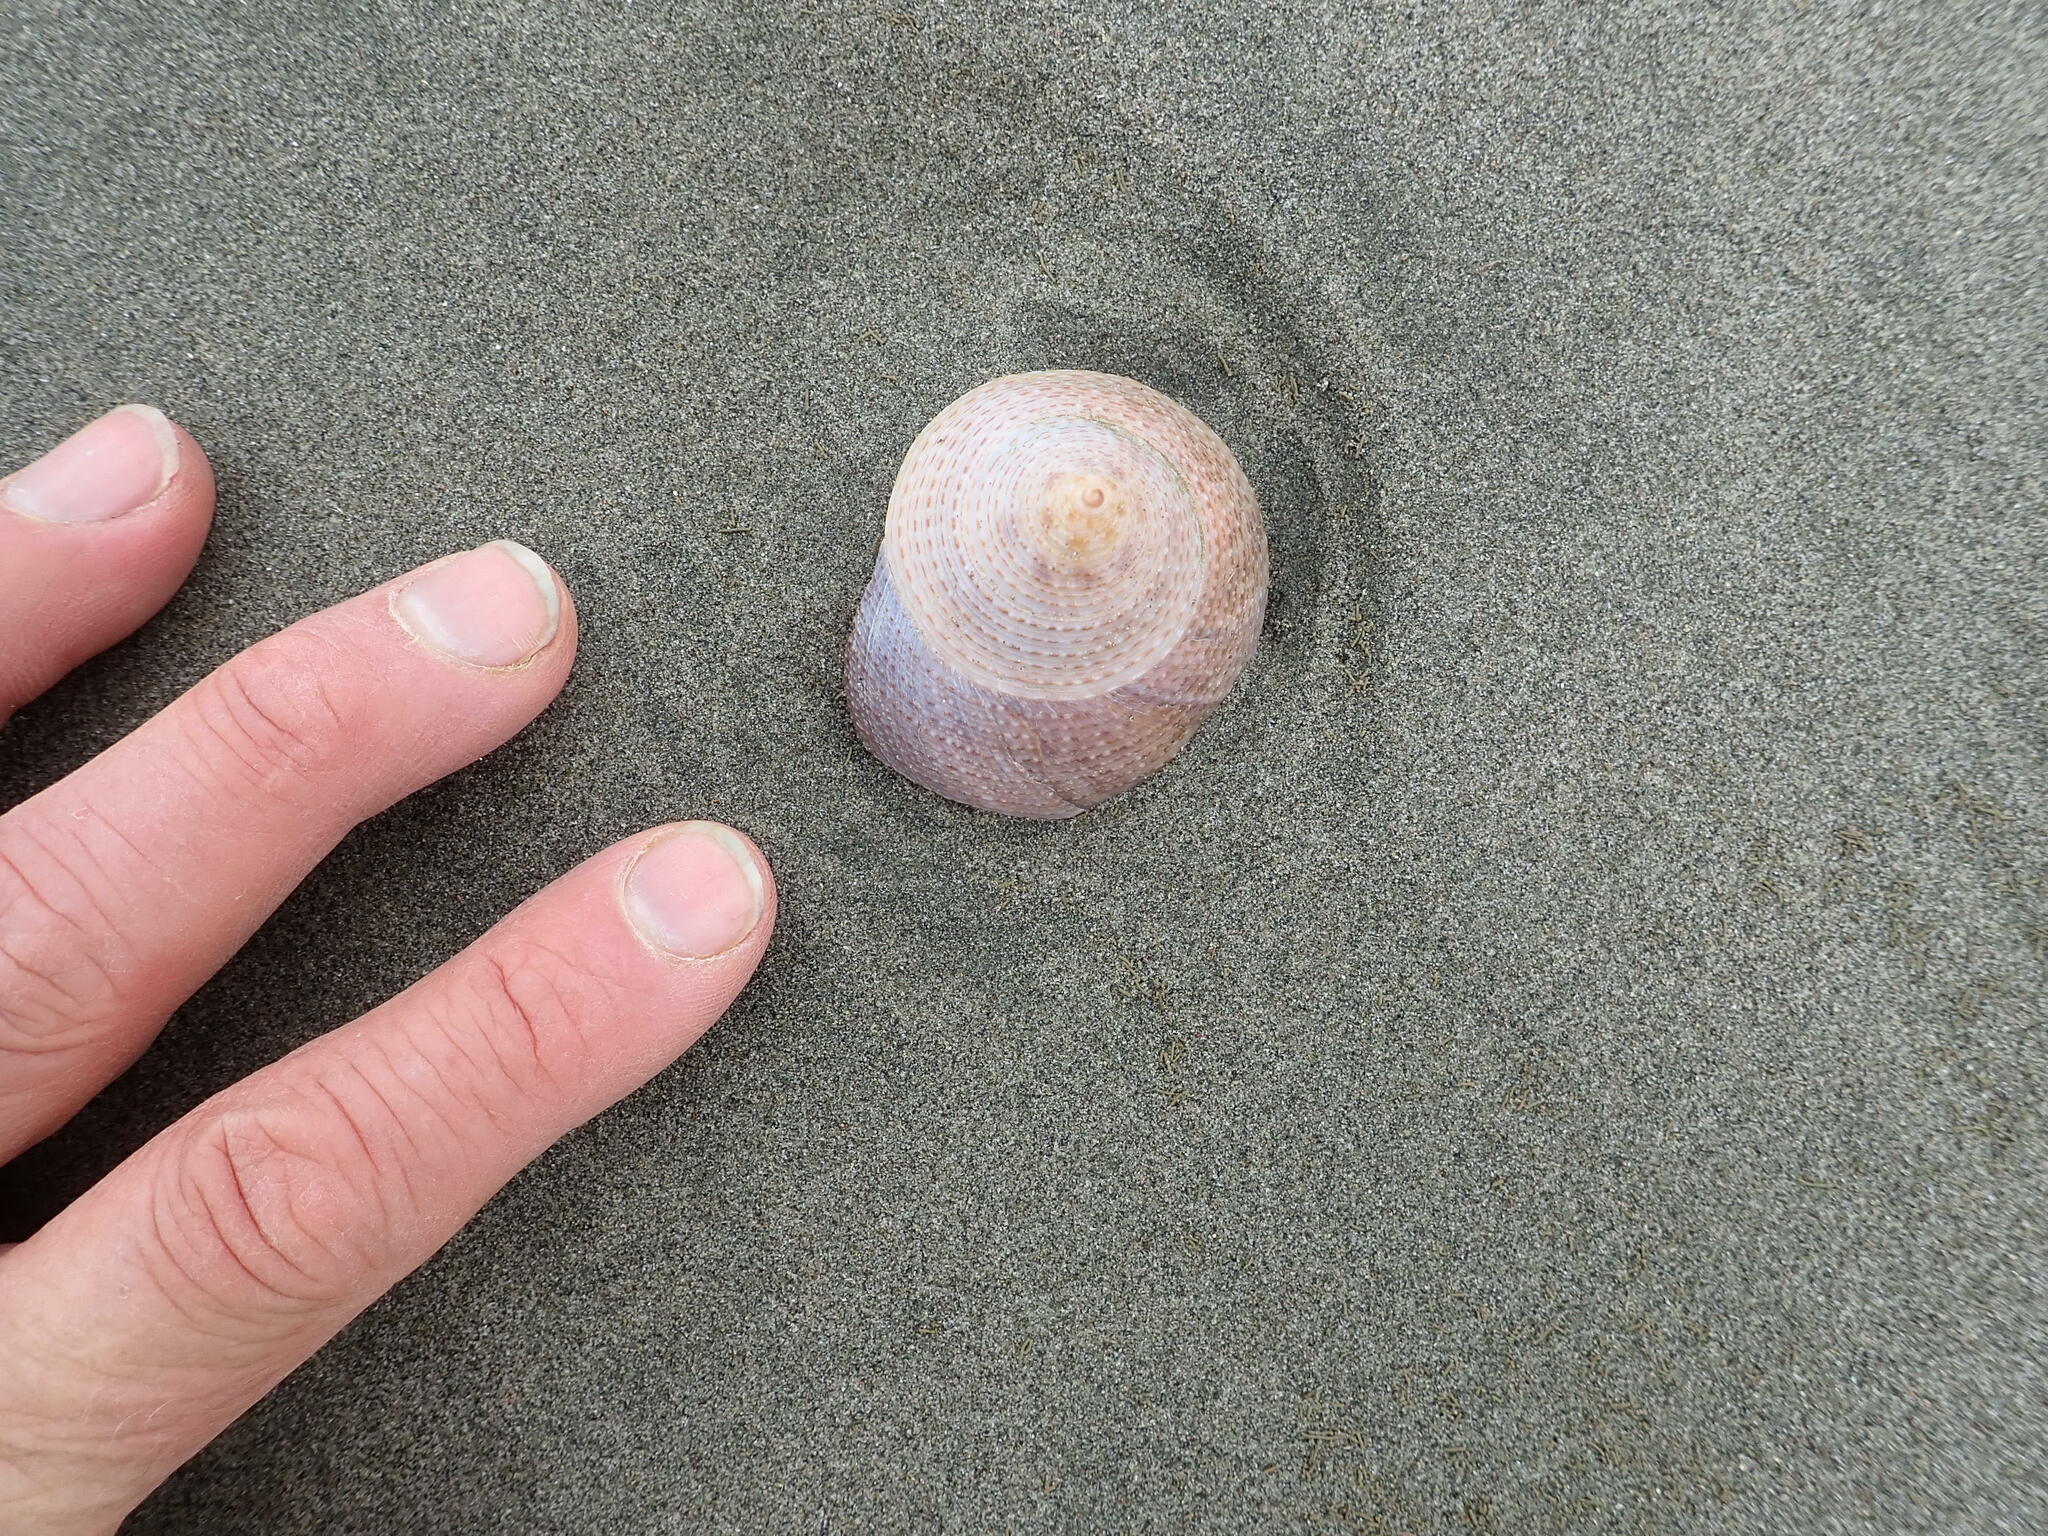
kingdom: Animalia
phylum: Mollusca
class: Gastropoda
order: Trochida
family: Calliostomatidae
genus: Maurea
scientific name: Maurea selecta
